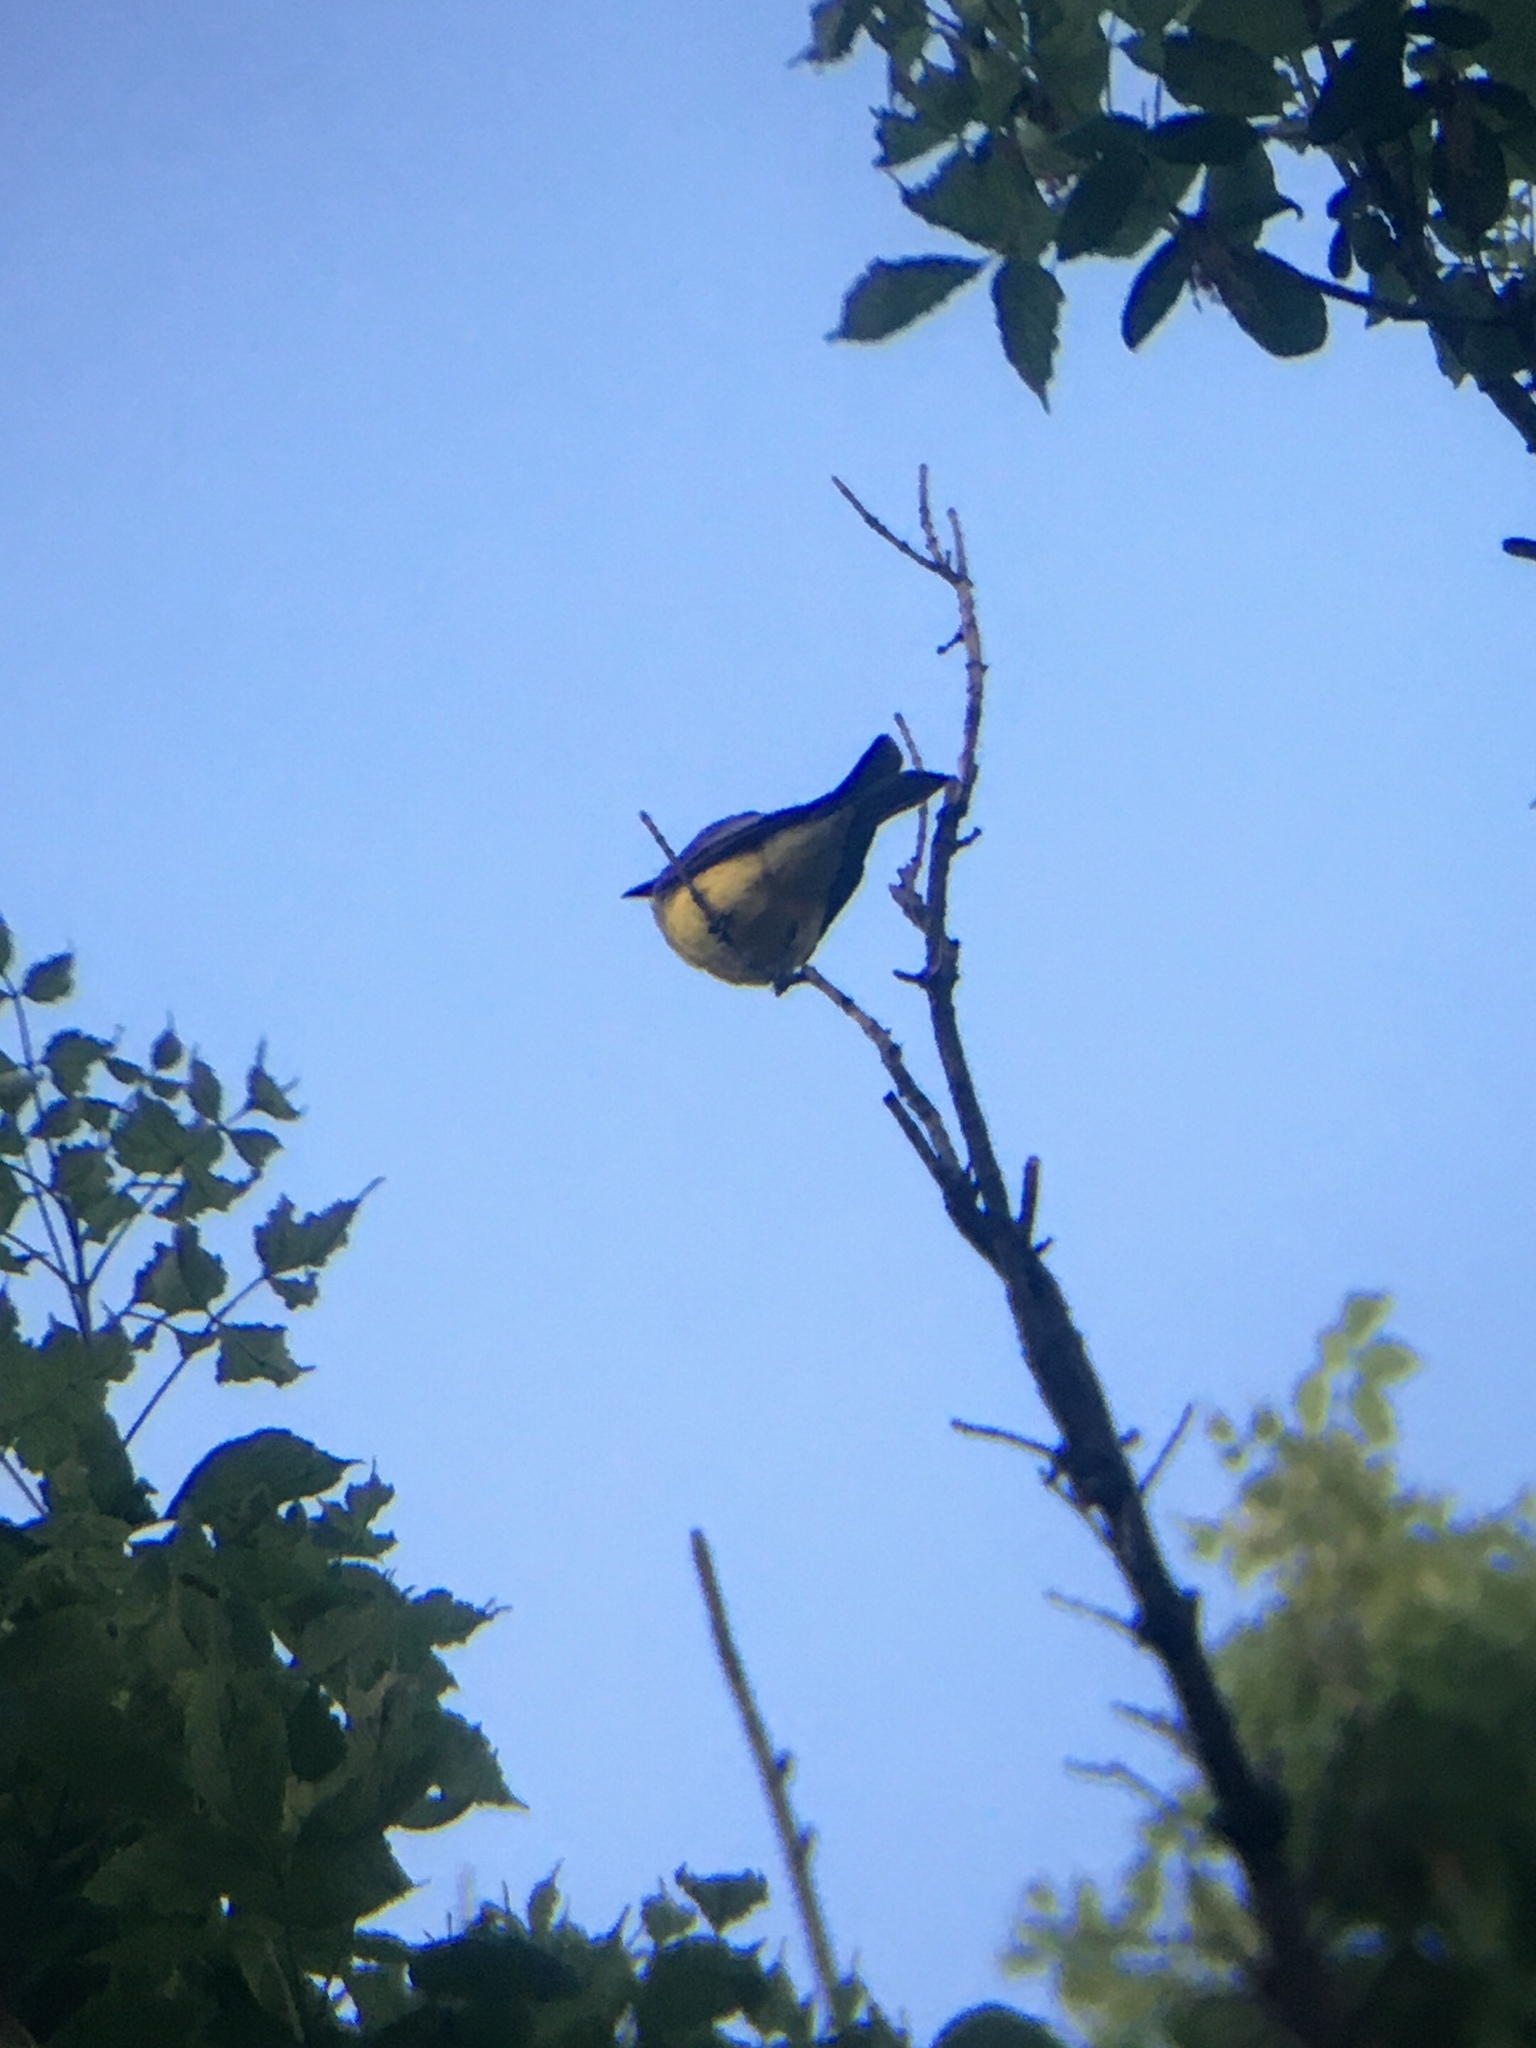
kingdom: Animalia
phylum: Chordata
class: Aves
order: Passeriformes
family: Tyrannidae
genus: Tyrannus
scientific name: Tyrannus melancholicus
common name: Tropical kingbird
